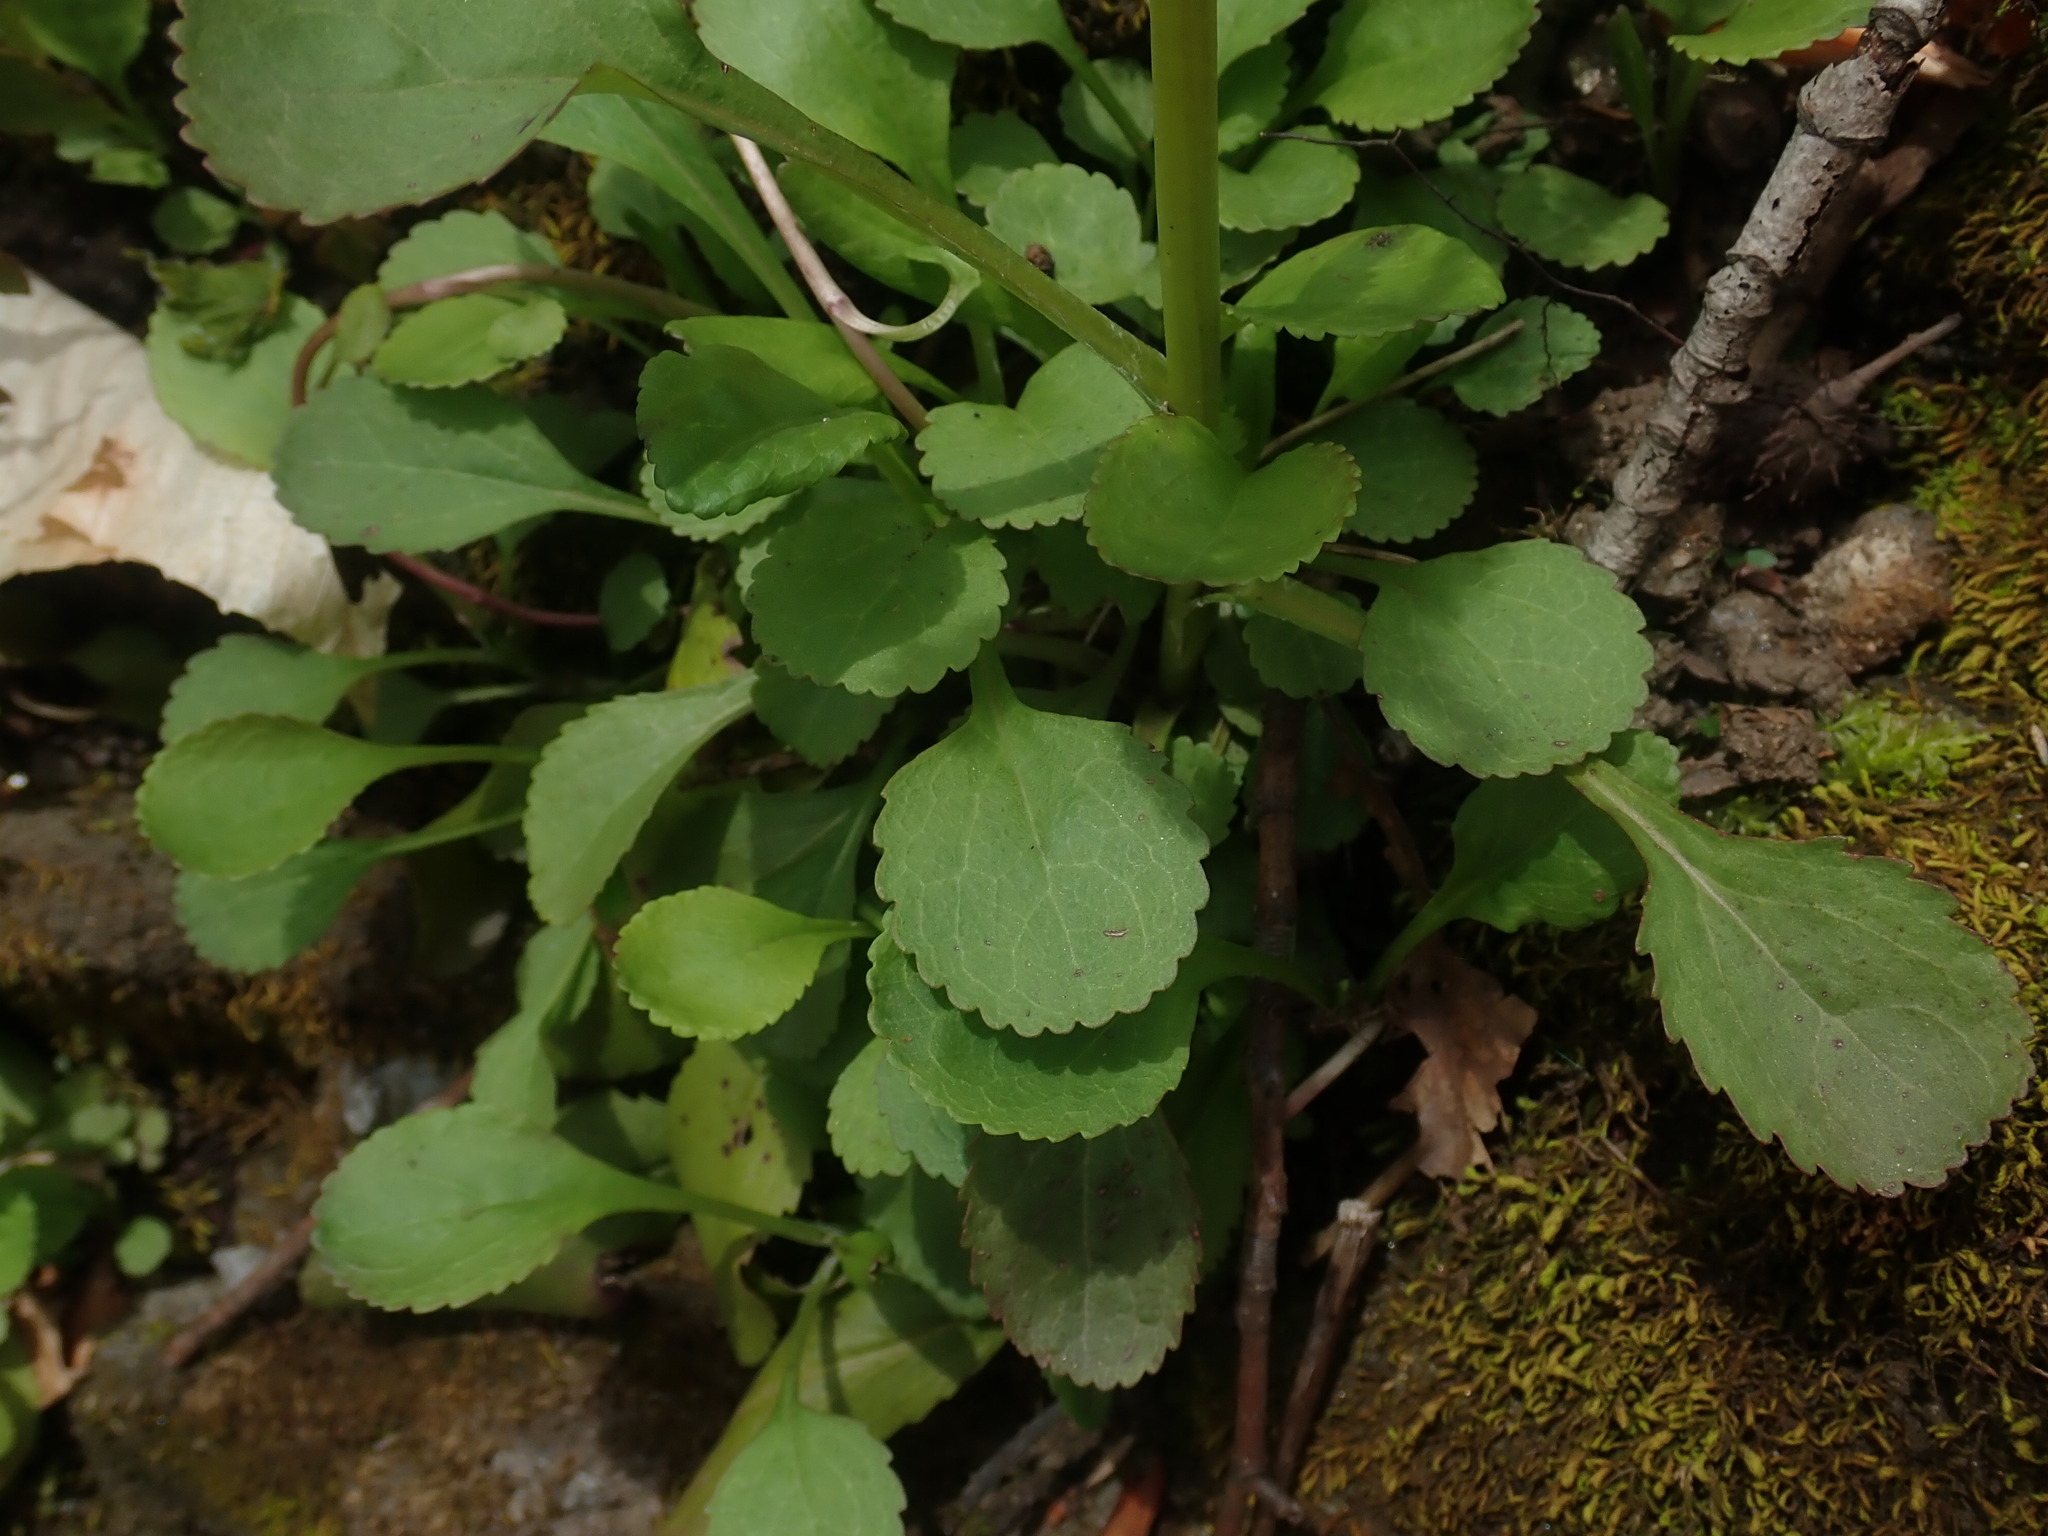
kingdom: Plantae
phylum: Tracheophyta
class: Magnoliopsida
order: Asterales
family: Asteraceae
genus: Packera
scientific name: Packera obovata
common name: Round-leaf ragwort
